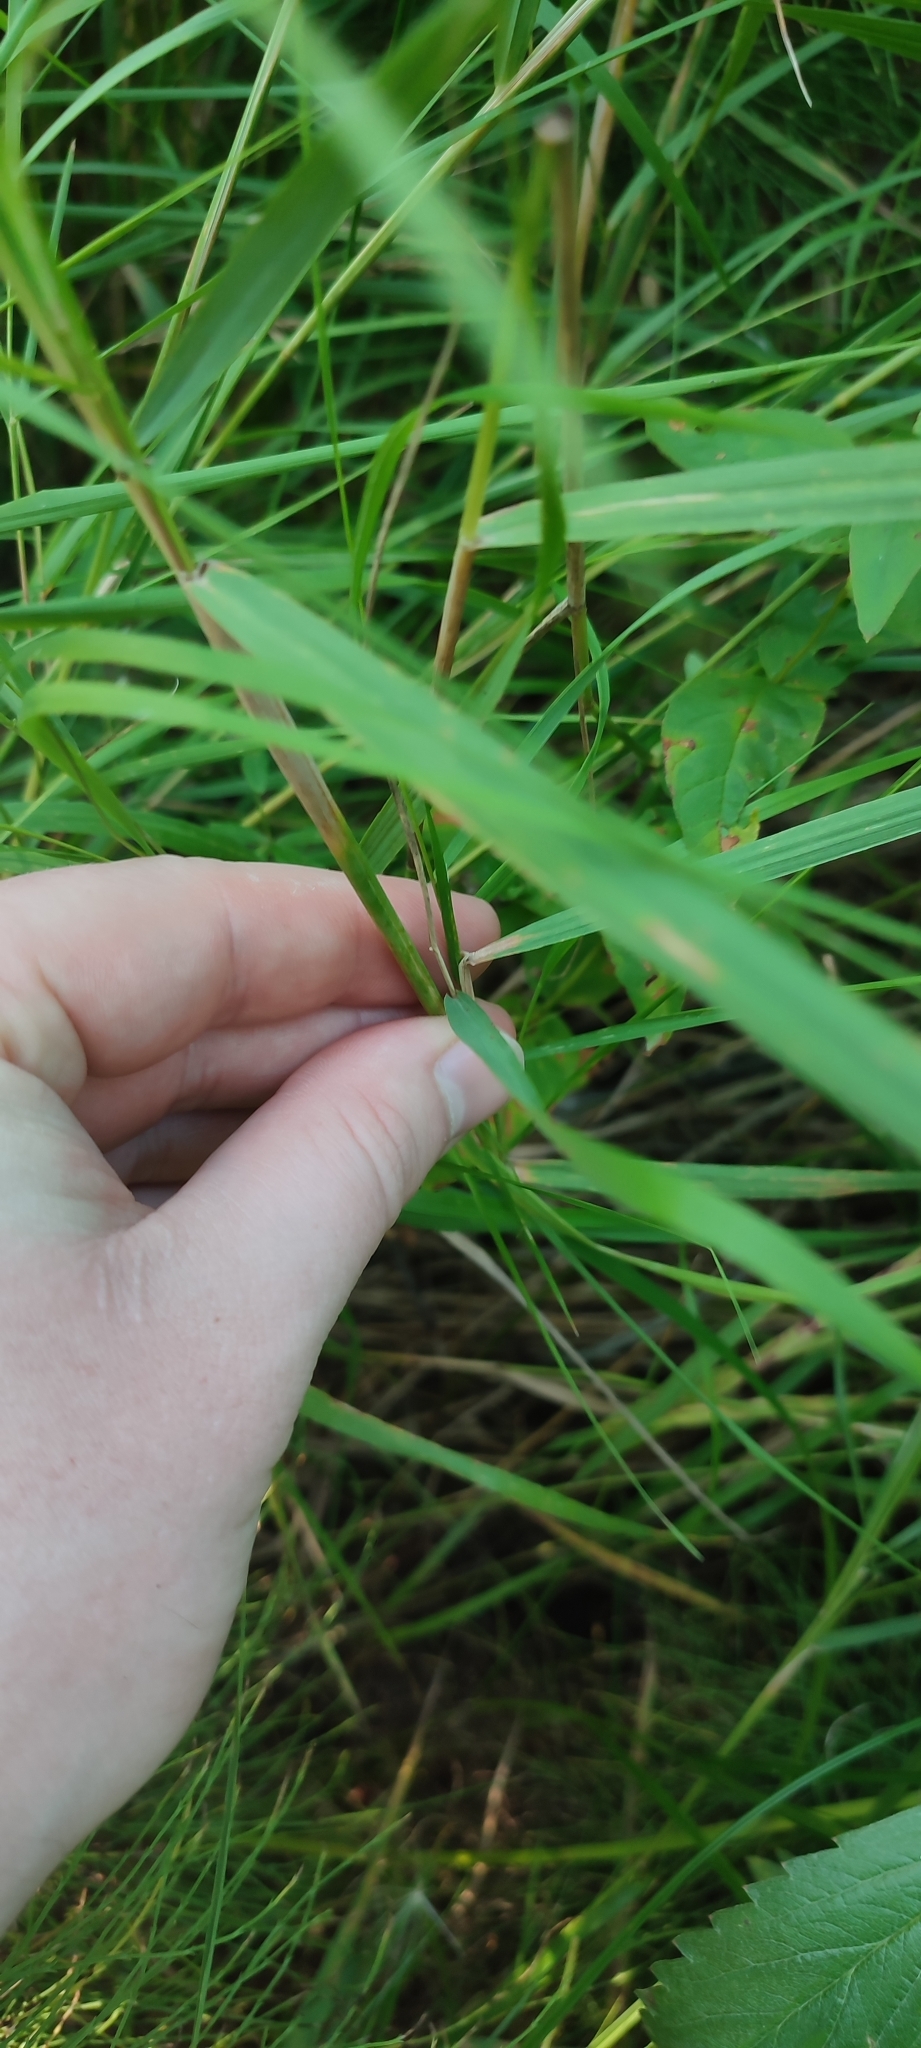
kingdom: Plantae
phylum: Tracheophyta
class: Liliopsida
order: Poales
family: Poaceae
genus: Calamagrostis
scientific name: Calamagrostis purpurea
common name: Scandinavian small-reed
